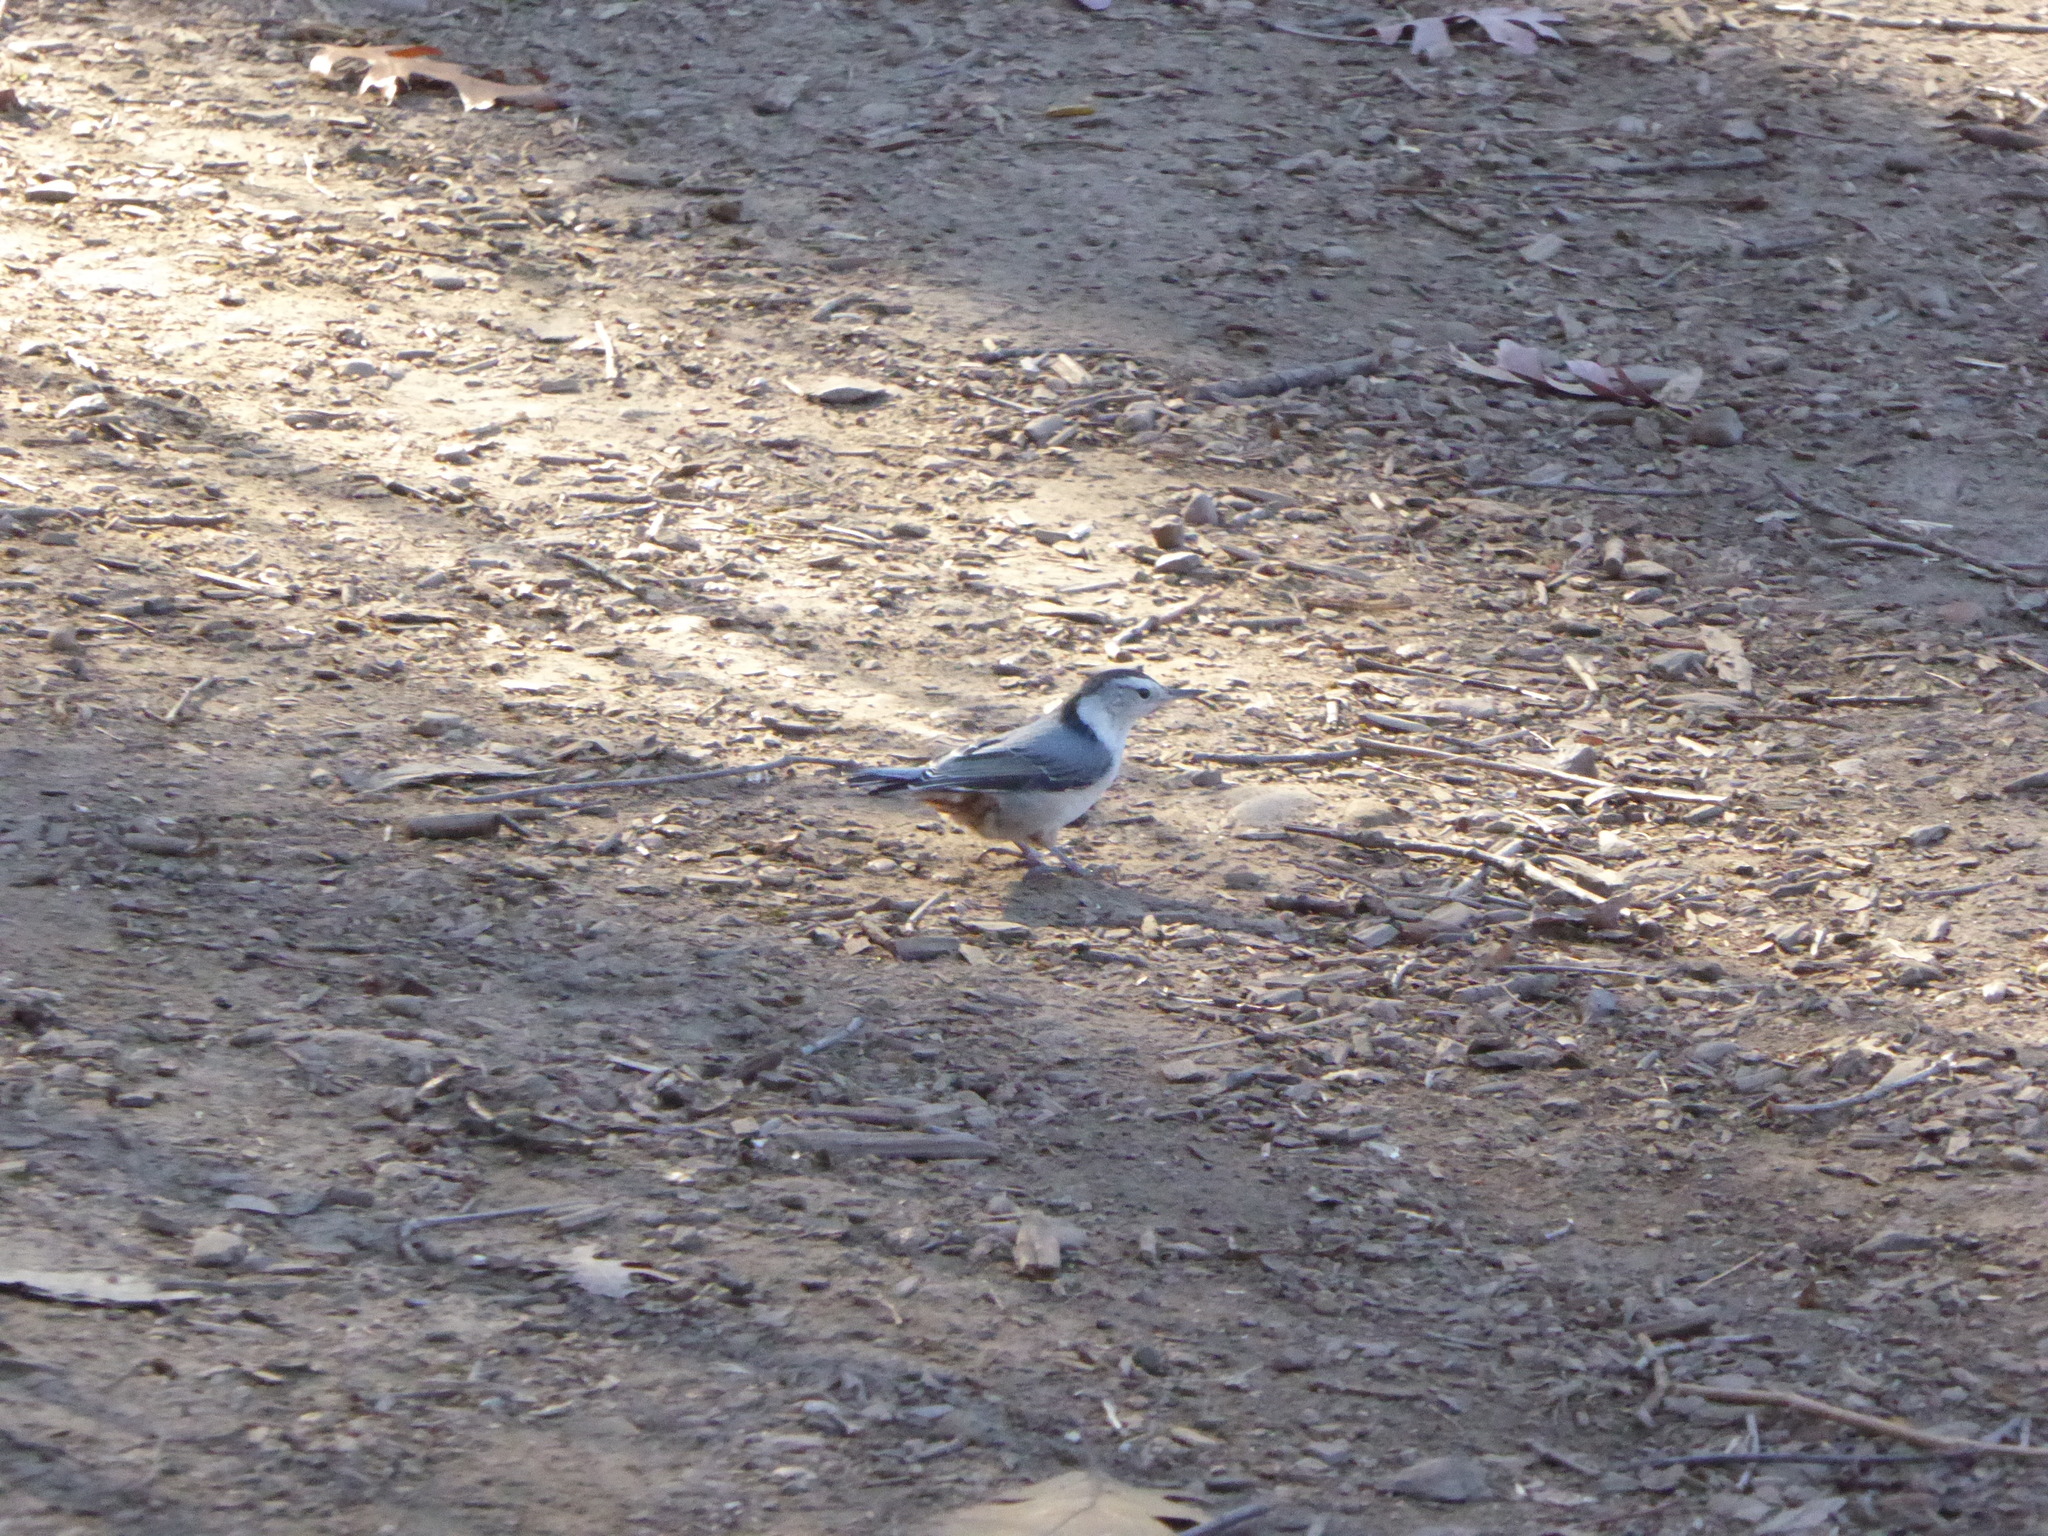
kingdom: Animalia
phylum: Chordata
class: Aves
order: Passeriformes
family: Sittidae
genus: Sitta
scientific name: Sitta carolinensis
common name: White-breasted nuthatch
